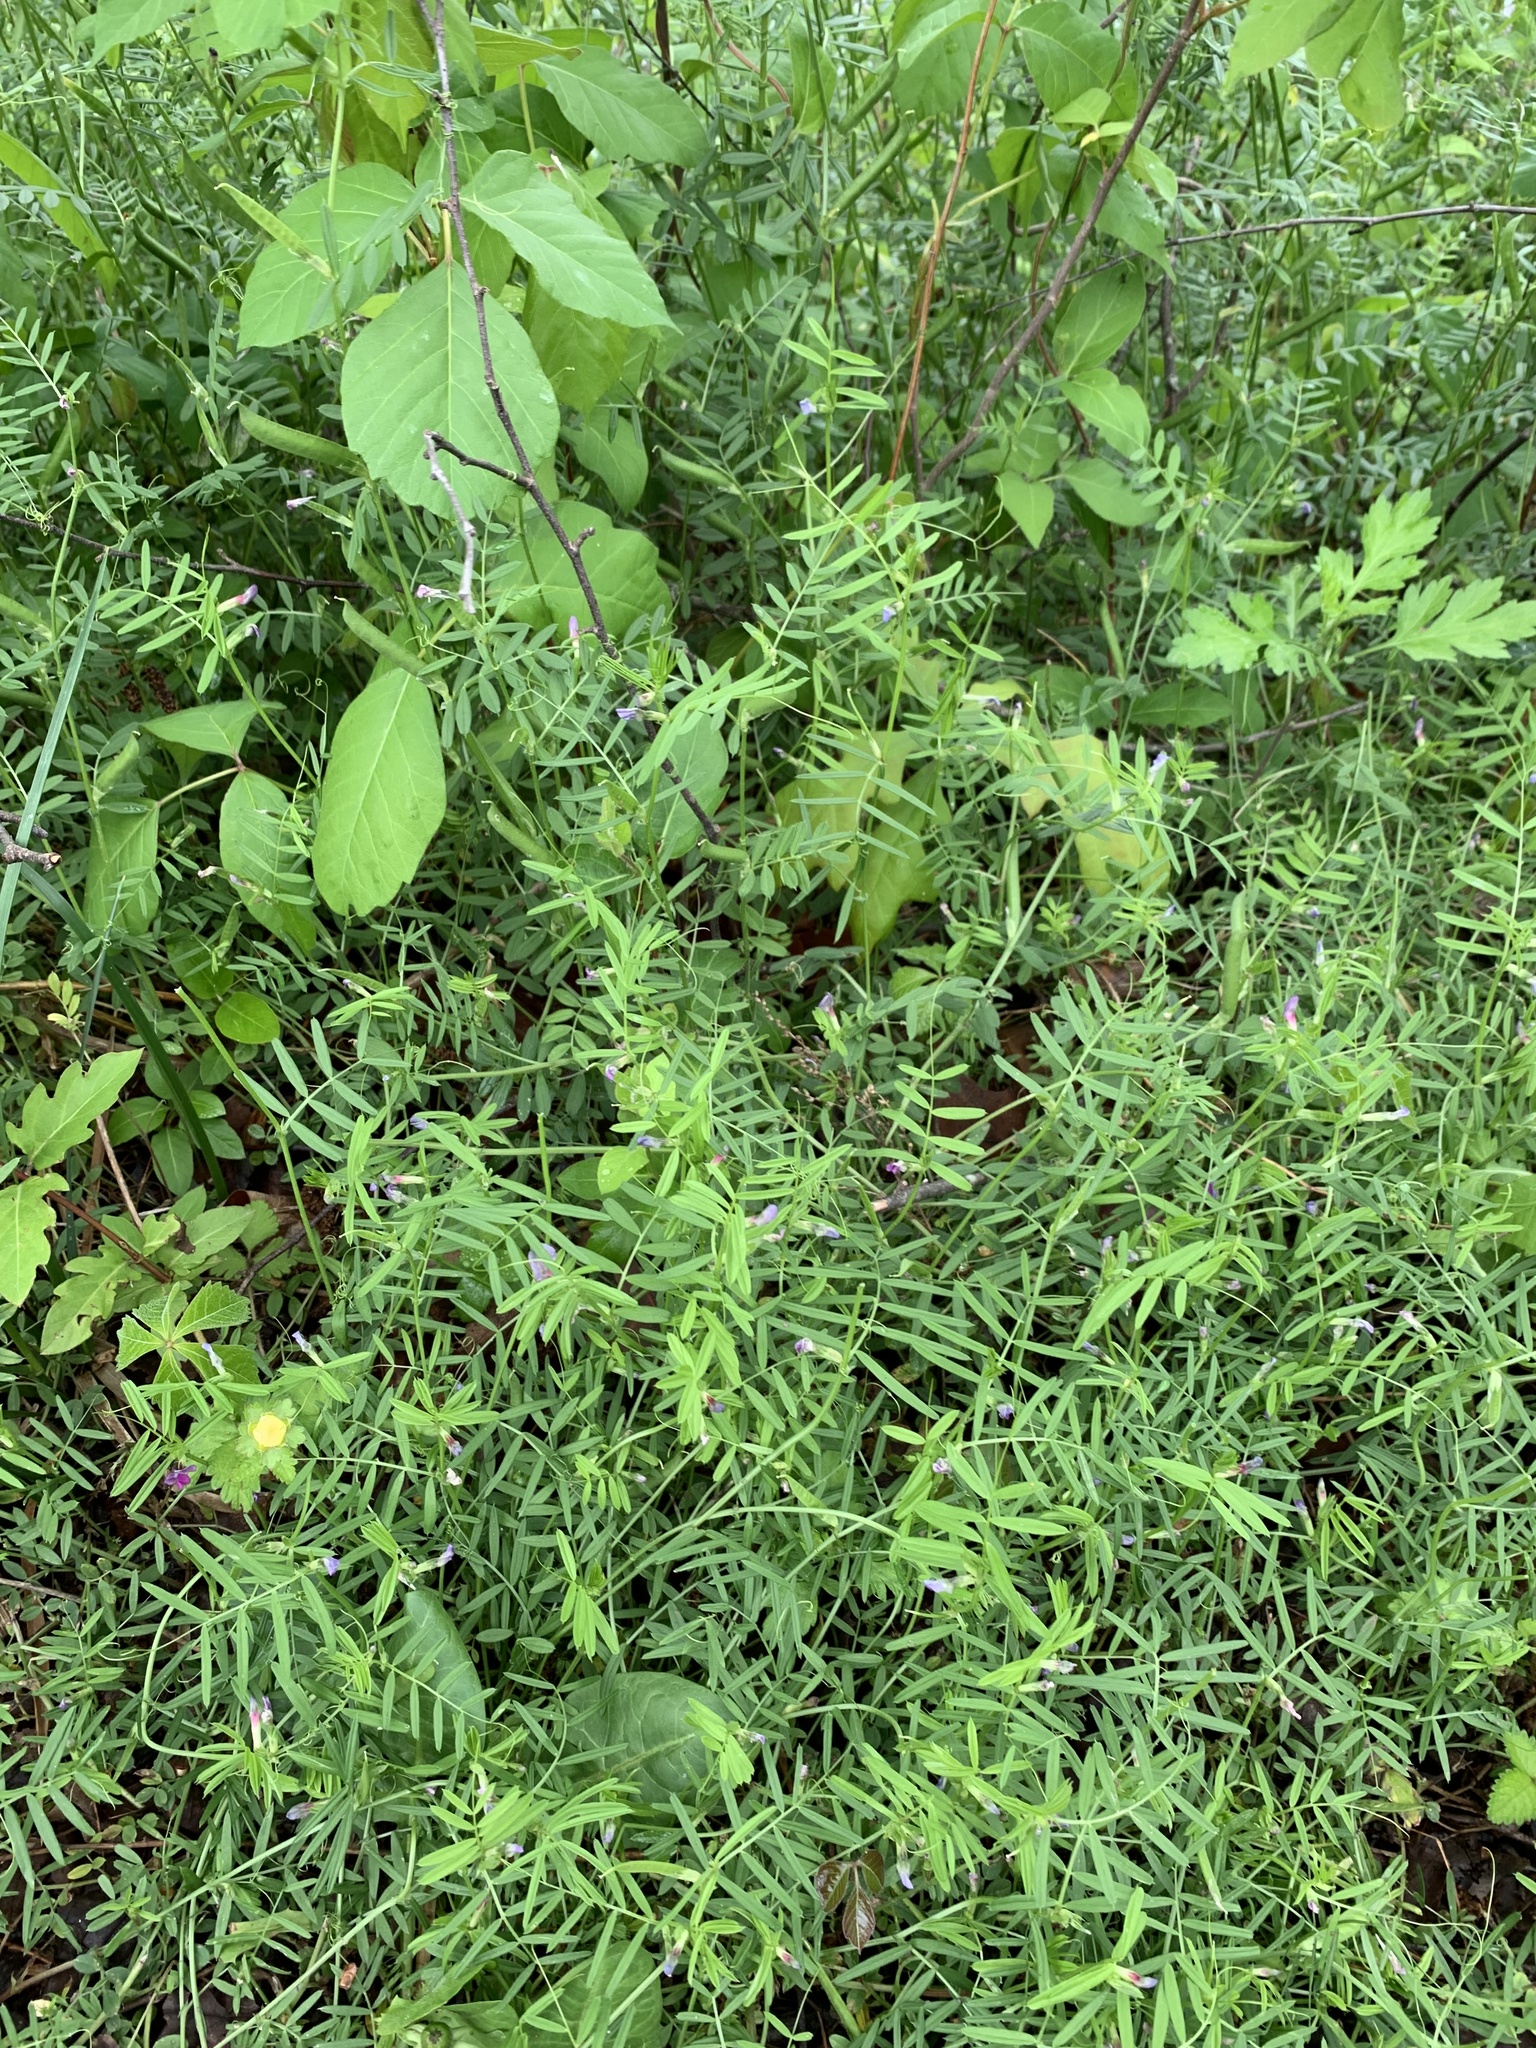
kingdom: Plantae
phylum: Tracheophyta
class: Magnoliopsida
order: Fabales
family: Fabaceae
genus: Vicia
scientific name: Vicia sativa
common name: Garden vetch
